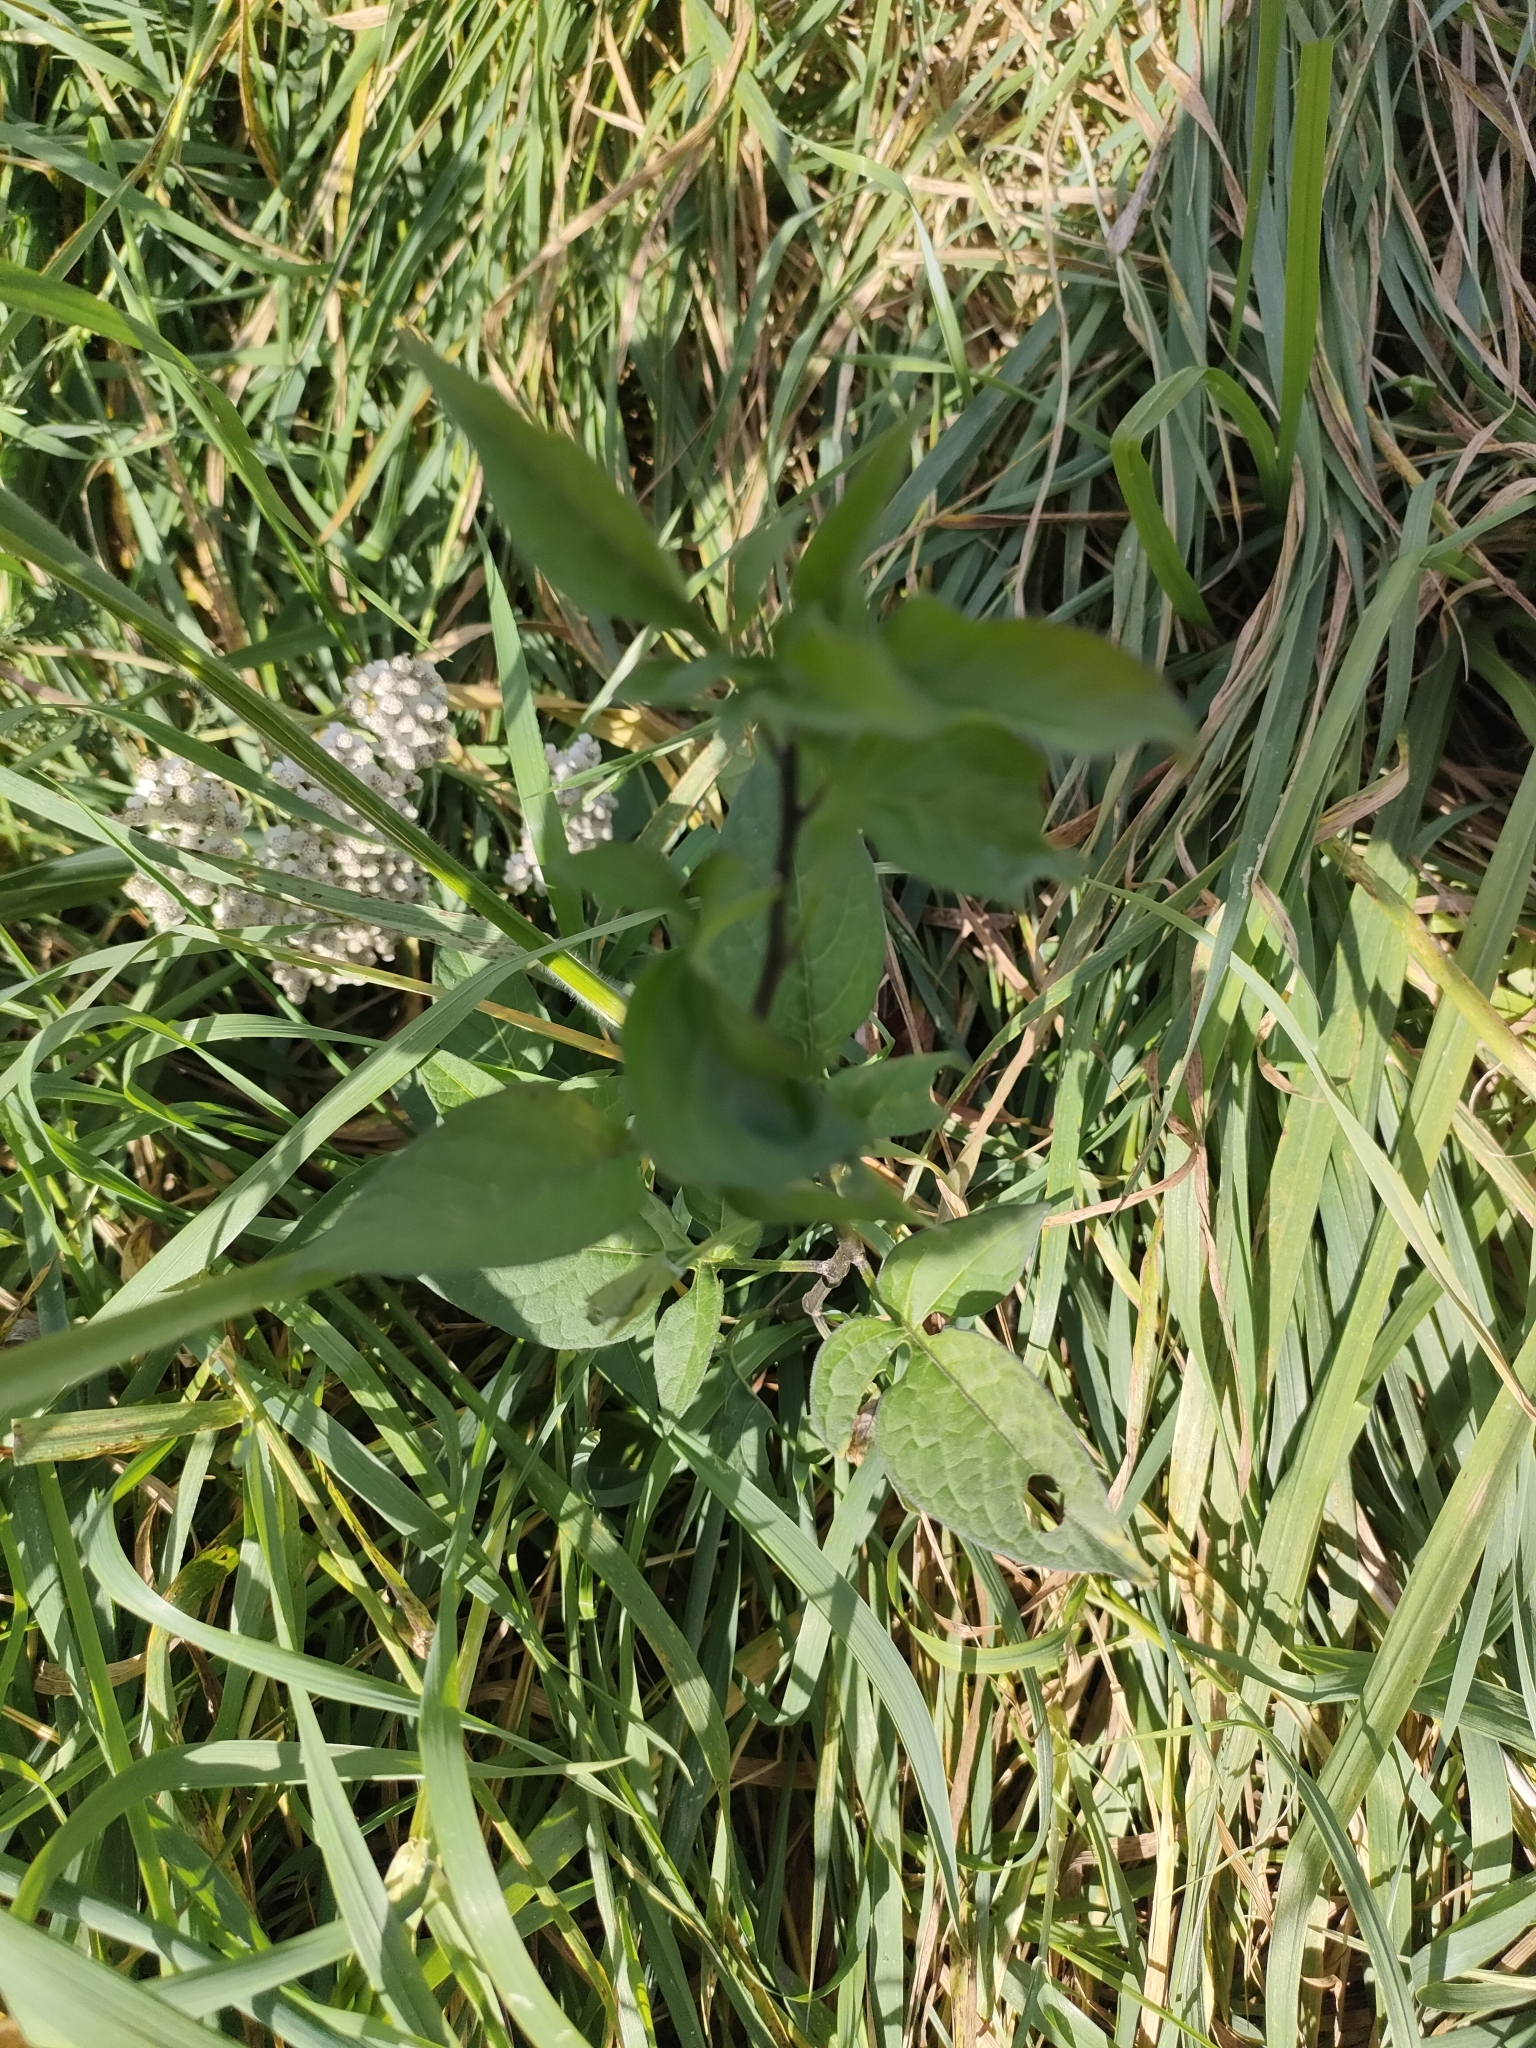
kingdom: Plantae
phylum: Tracheophyta
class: Magnoliopsida
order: Solanales
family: Solanaceae
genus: Solanum
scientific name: Solanum dulcamara
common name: Climbing nightshade
